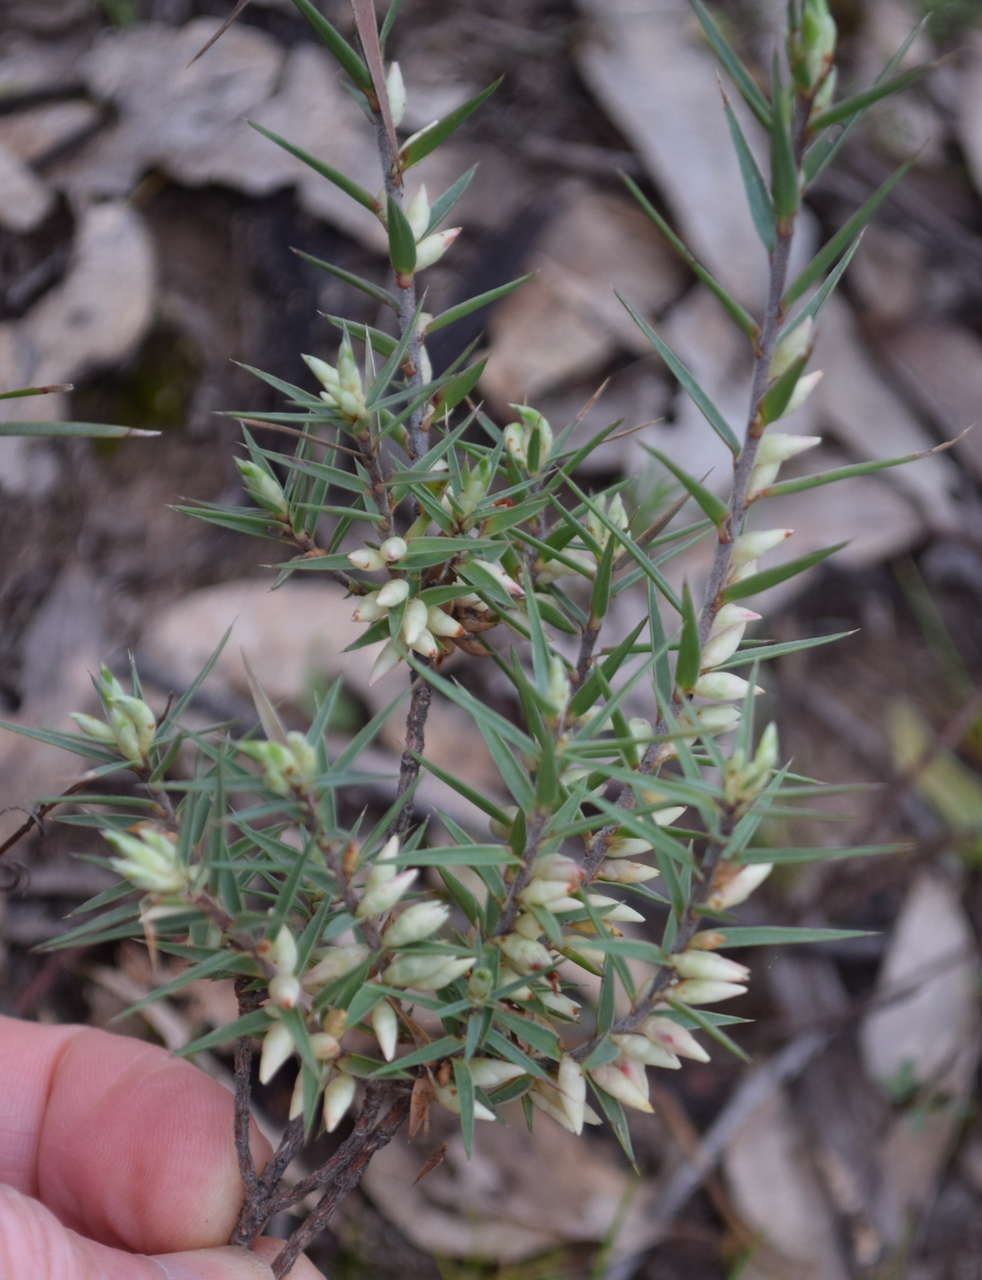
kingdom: Plantae
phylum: Tracheophyta
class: Magnoliopsida
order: Ericales
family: Ericaceae
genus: Melichrus
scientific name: Melichrus urceolatus
